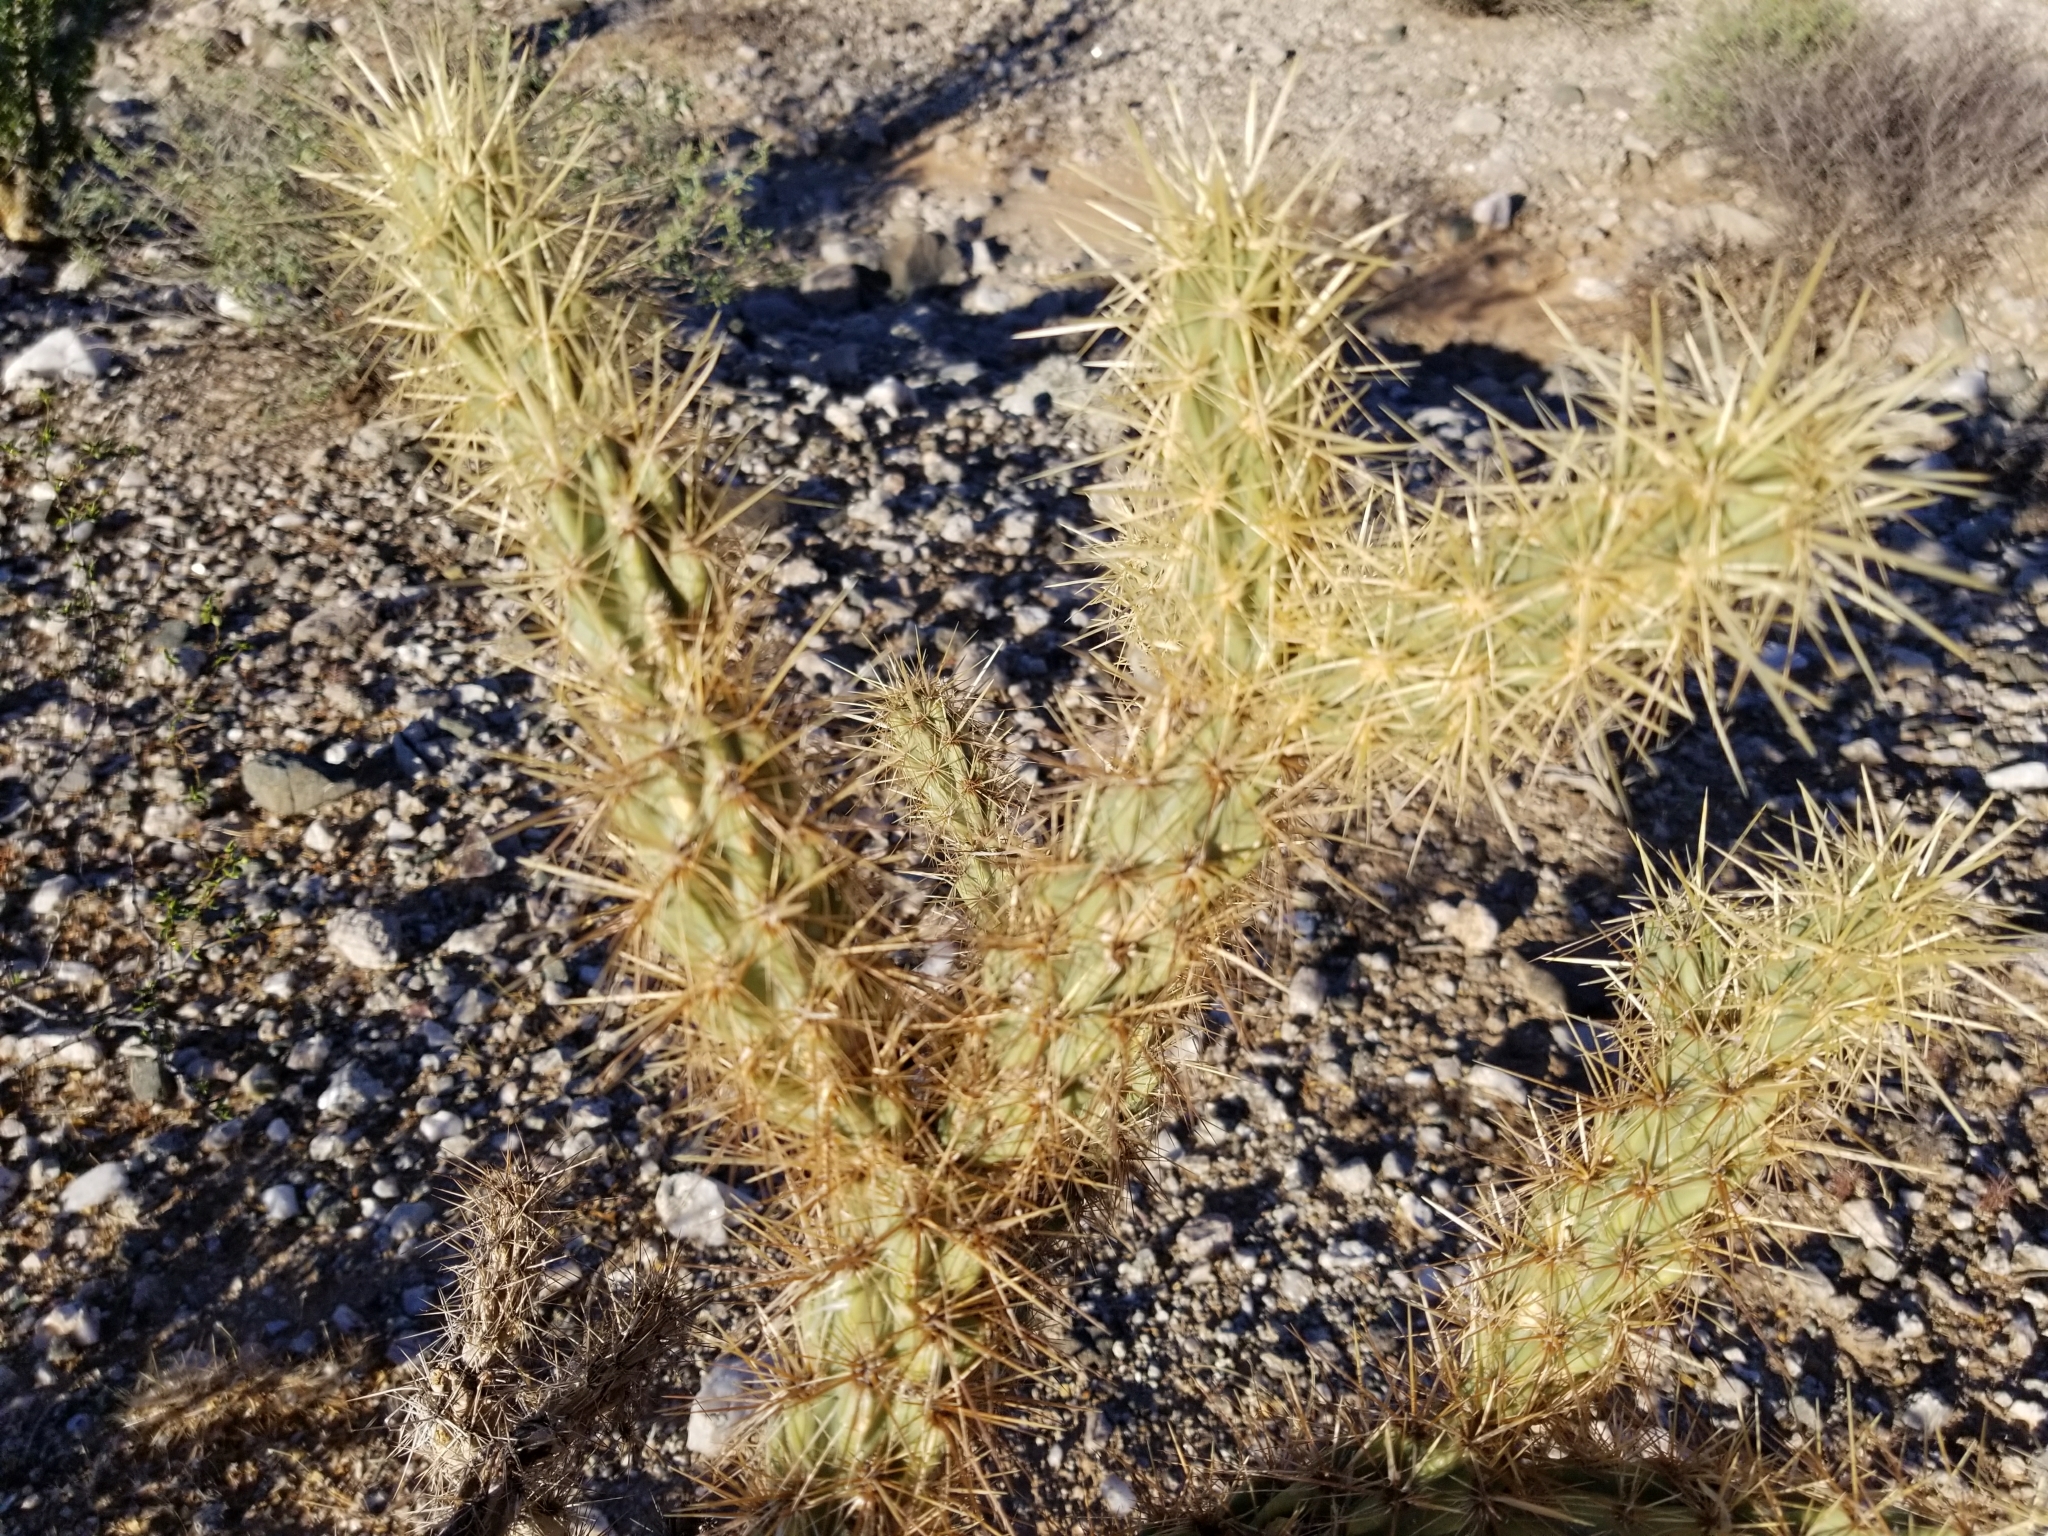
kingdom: Plantae
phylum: Tracheophyta
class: Magnoliopsida
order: Caryophyllales
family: Cactaceae
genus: Cylindropuntia
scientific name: Cylindropuntia acanthocarpa
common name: Buckhorn cholla
